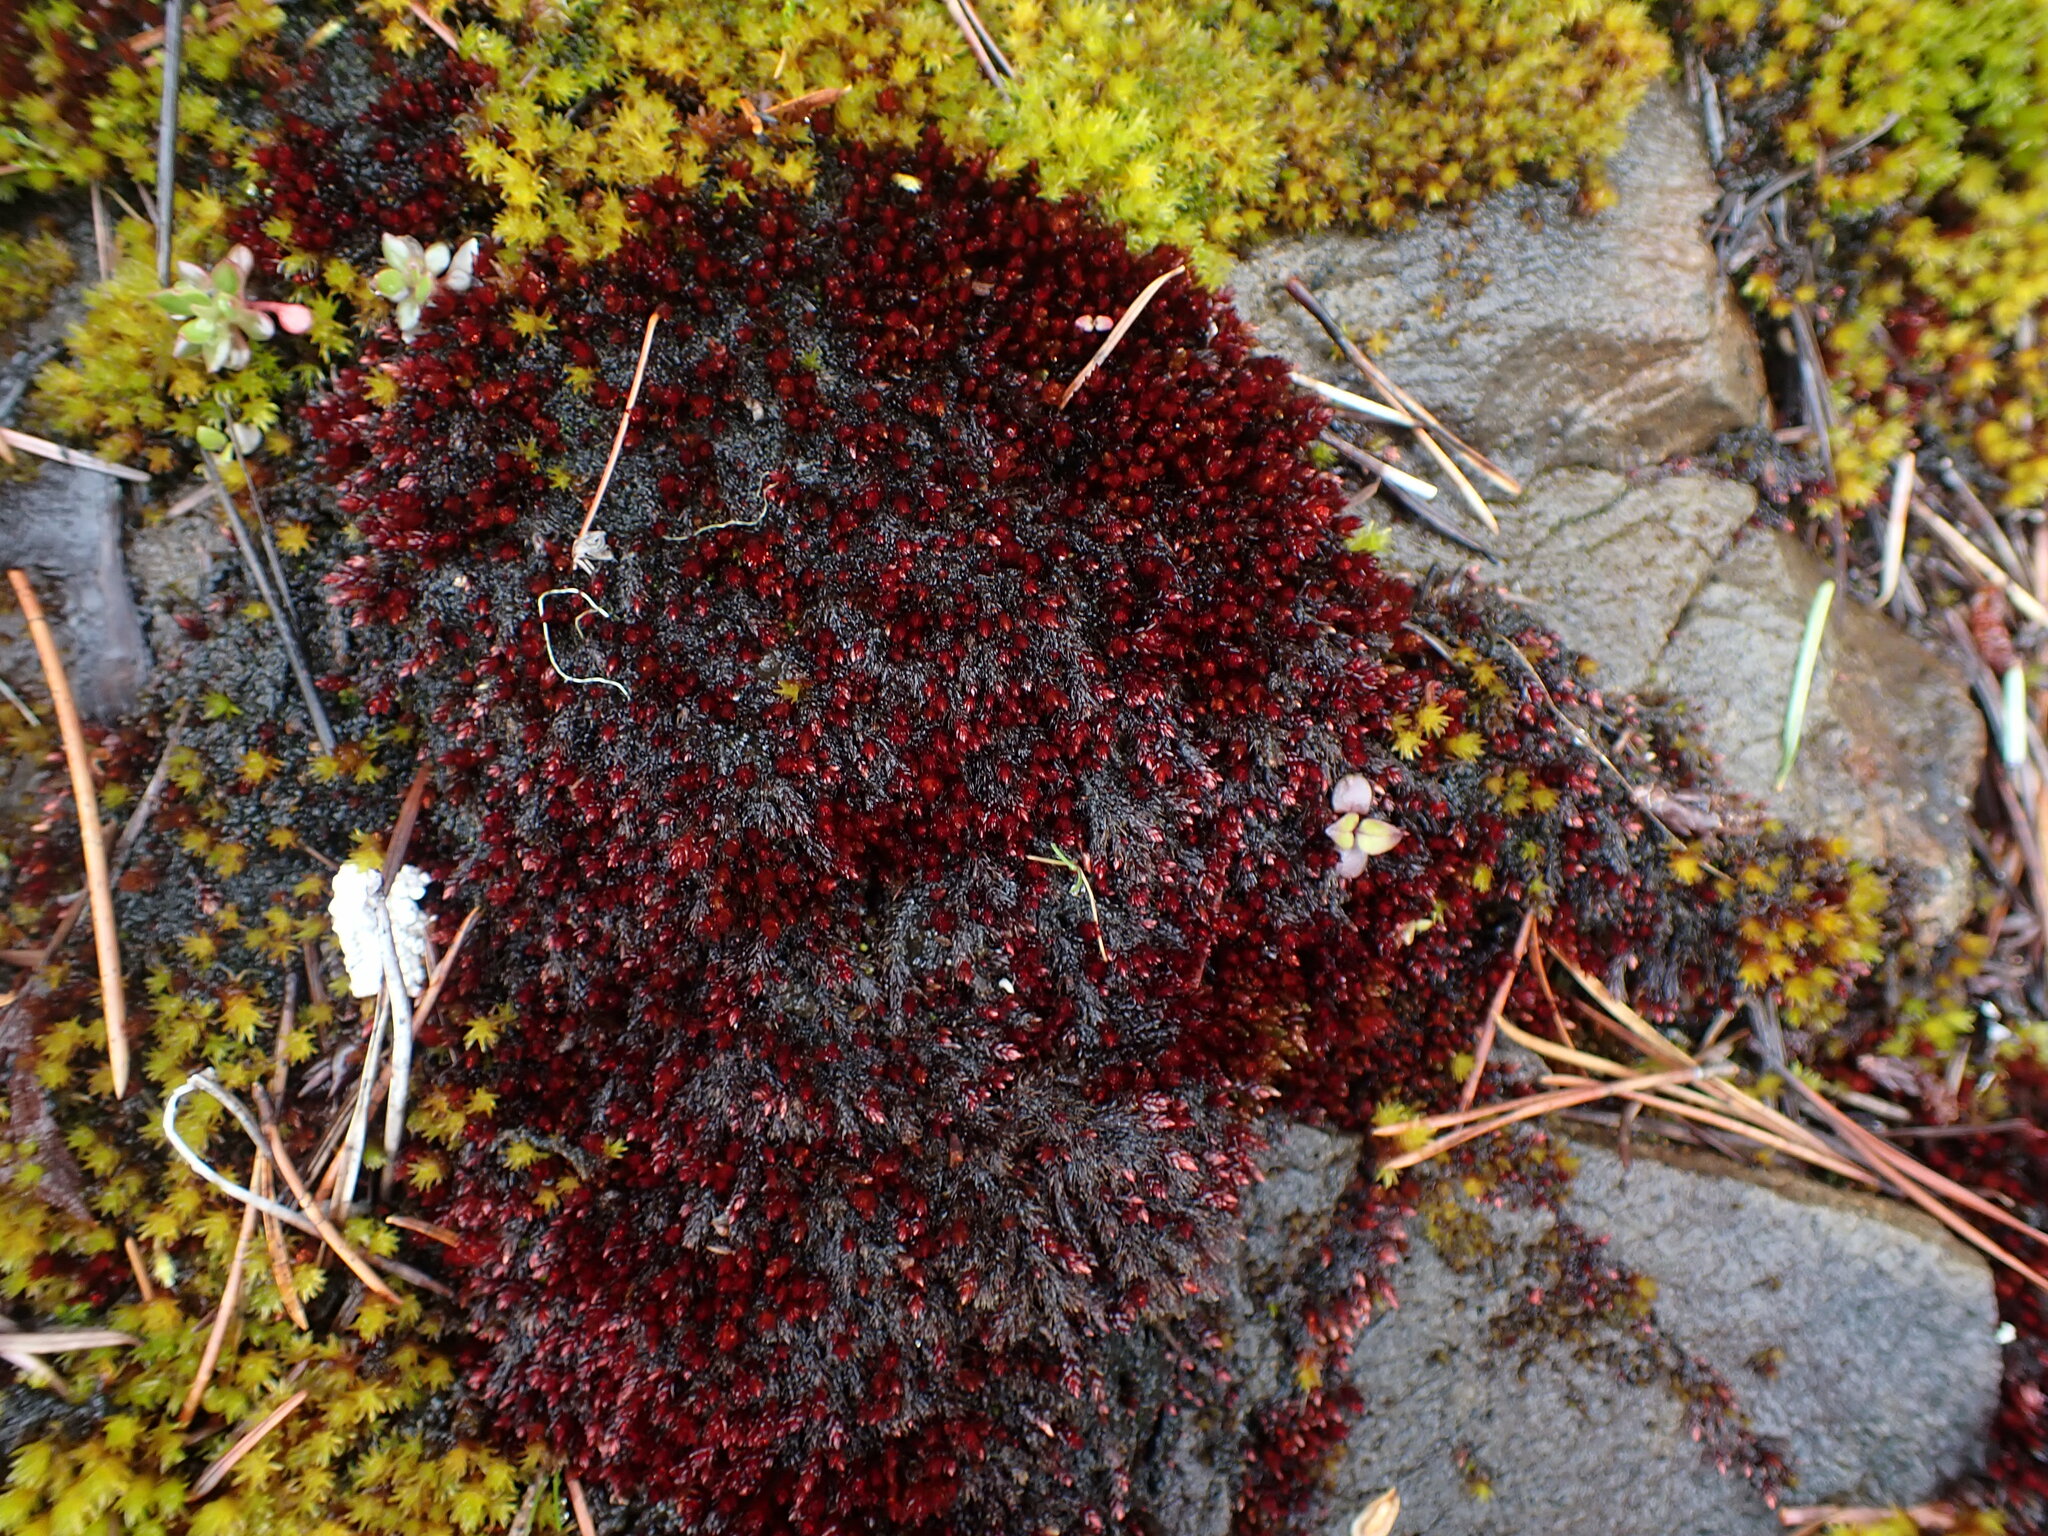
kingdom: Plantae
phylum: Bryophyta
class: Bryopsida
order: Bryales
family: Bryaceae
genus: Imbribryum
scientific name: Imbribryum miniatum
